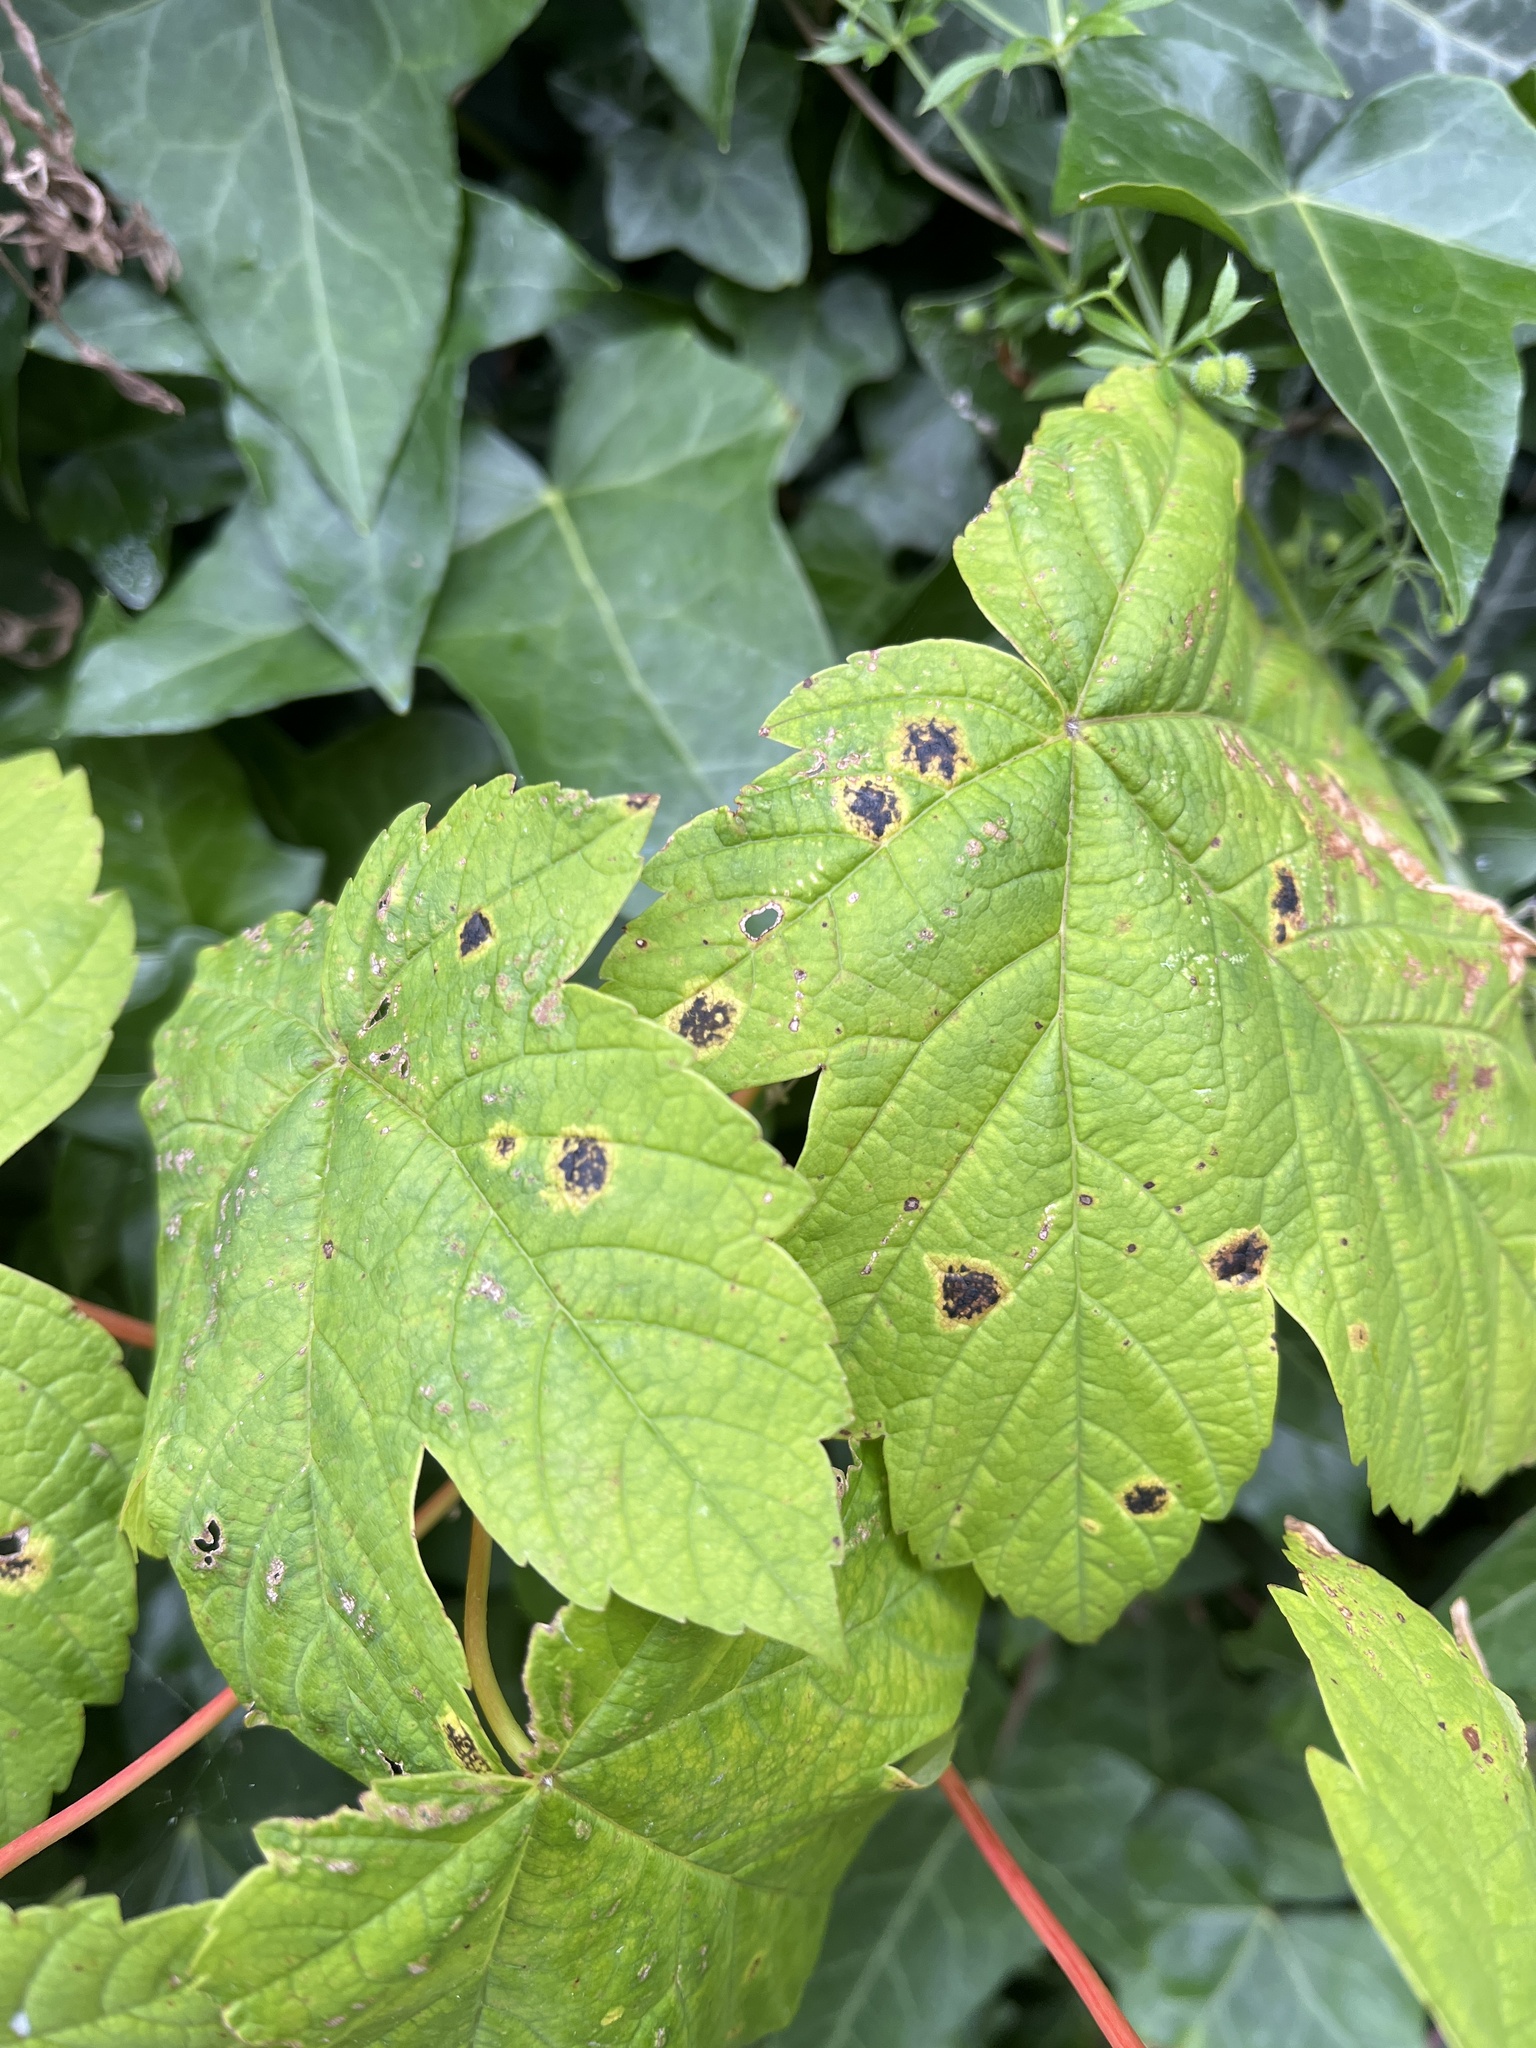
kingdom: Fungi
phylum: Ascomycota
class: Leotiomycetes
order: Rhytismatales
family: Rhytismataceae
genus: Rhytisma
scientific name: Rhytisma acerinum
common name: European tar spot
